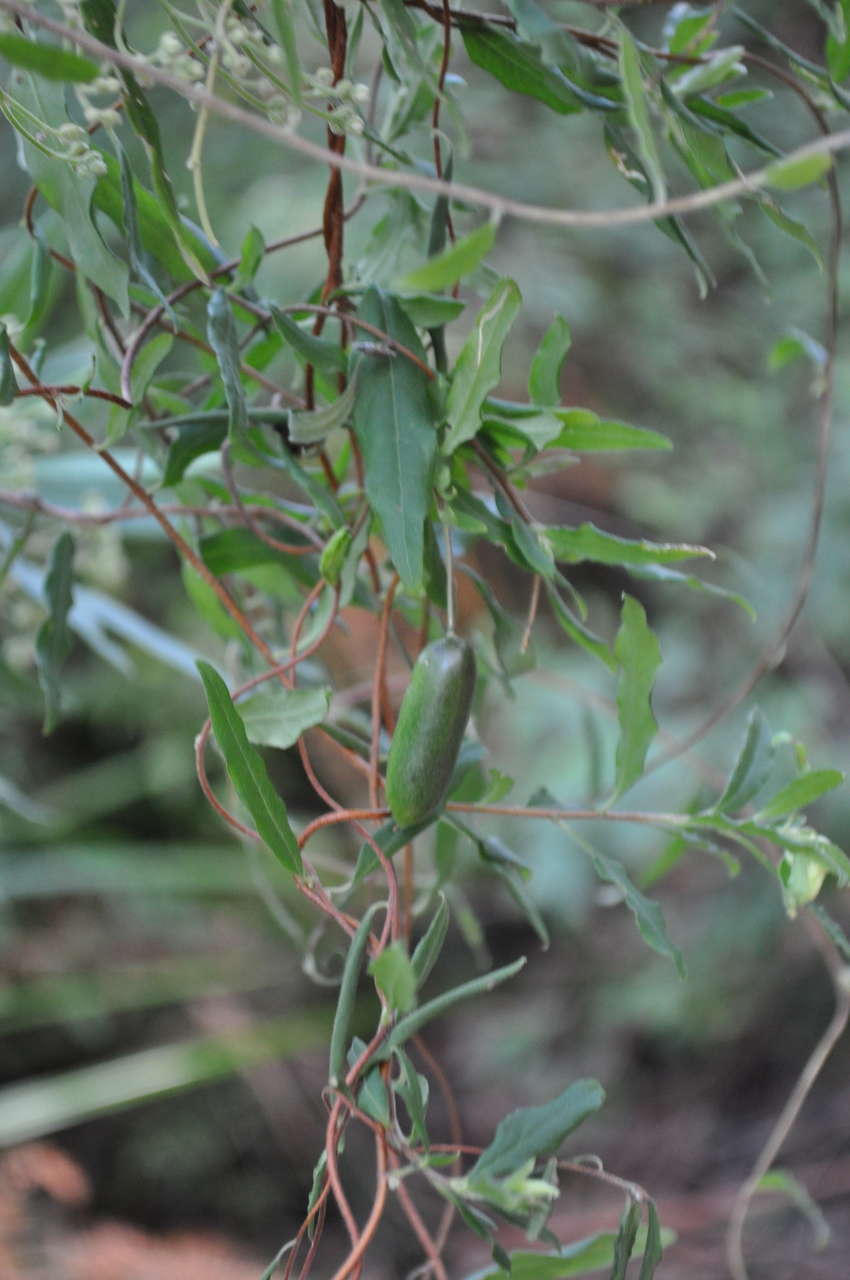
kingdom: Plantae
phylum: Tracheophyta
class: Magnoliopsida
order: Apiales
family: Pittosporaceae
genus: Billardiera
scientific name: Billardiera mutabilis
